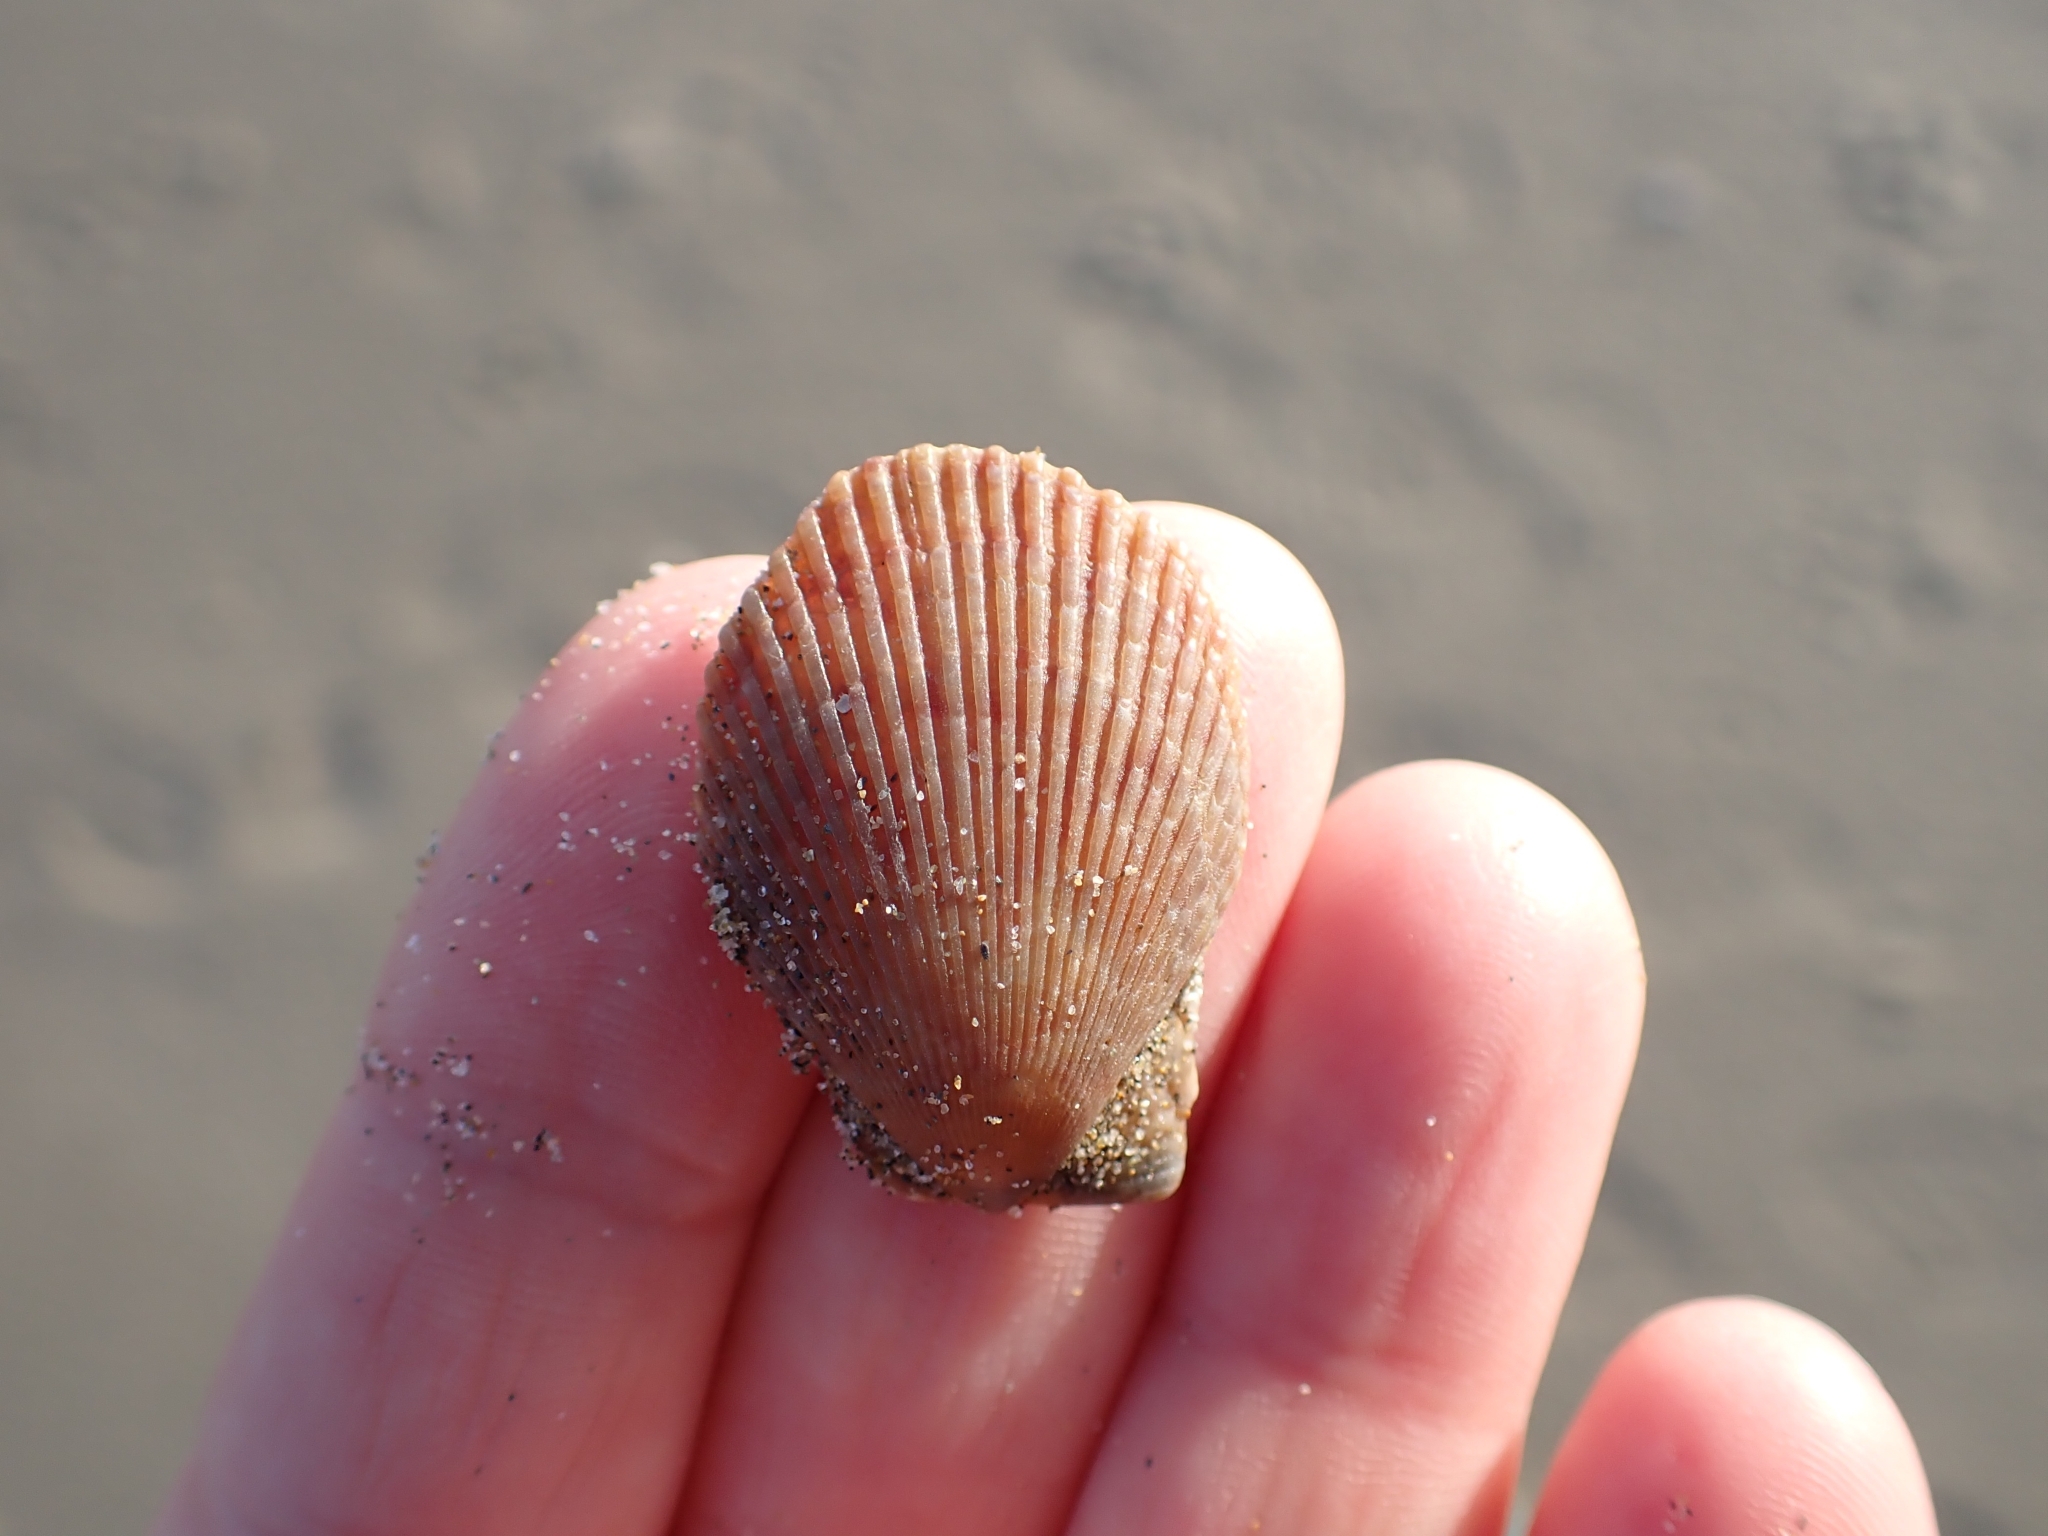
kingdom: Animalia
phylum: Mollusca
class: Bivalvia
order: Pectinida
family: Pectinidae
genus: Mimachlamys
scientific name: Mimachlamys varia
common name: Variegated scallop
